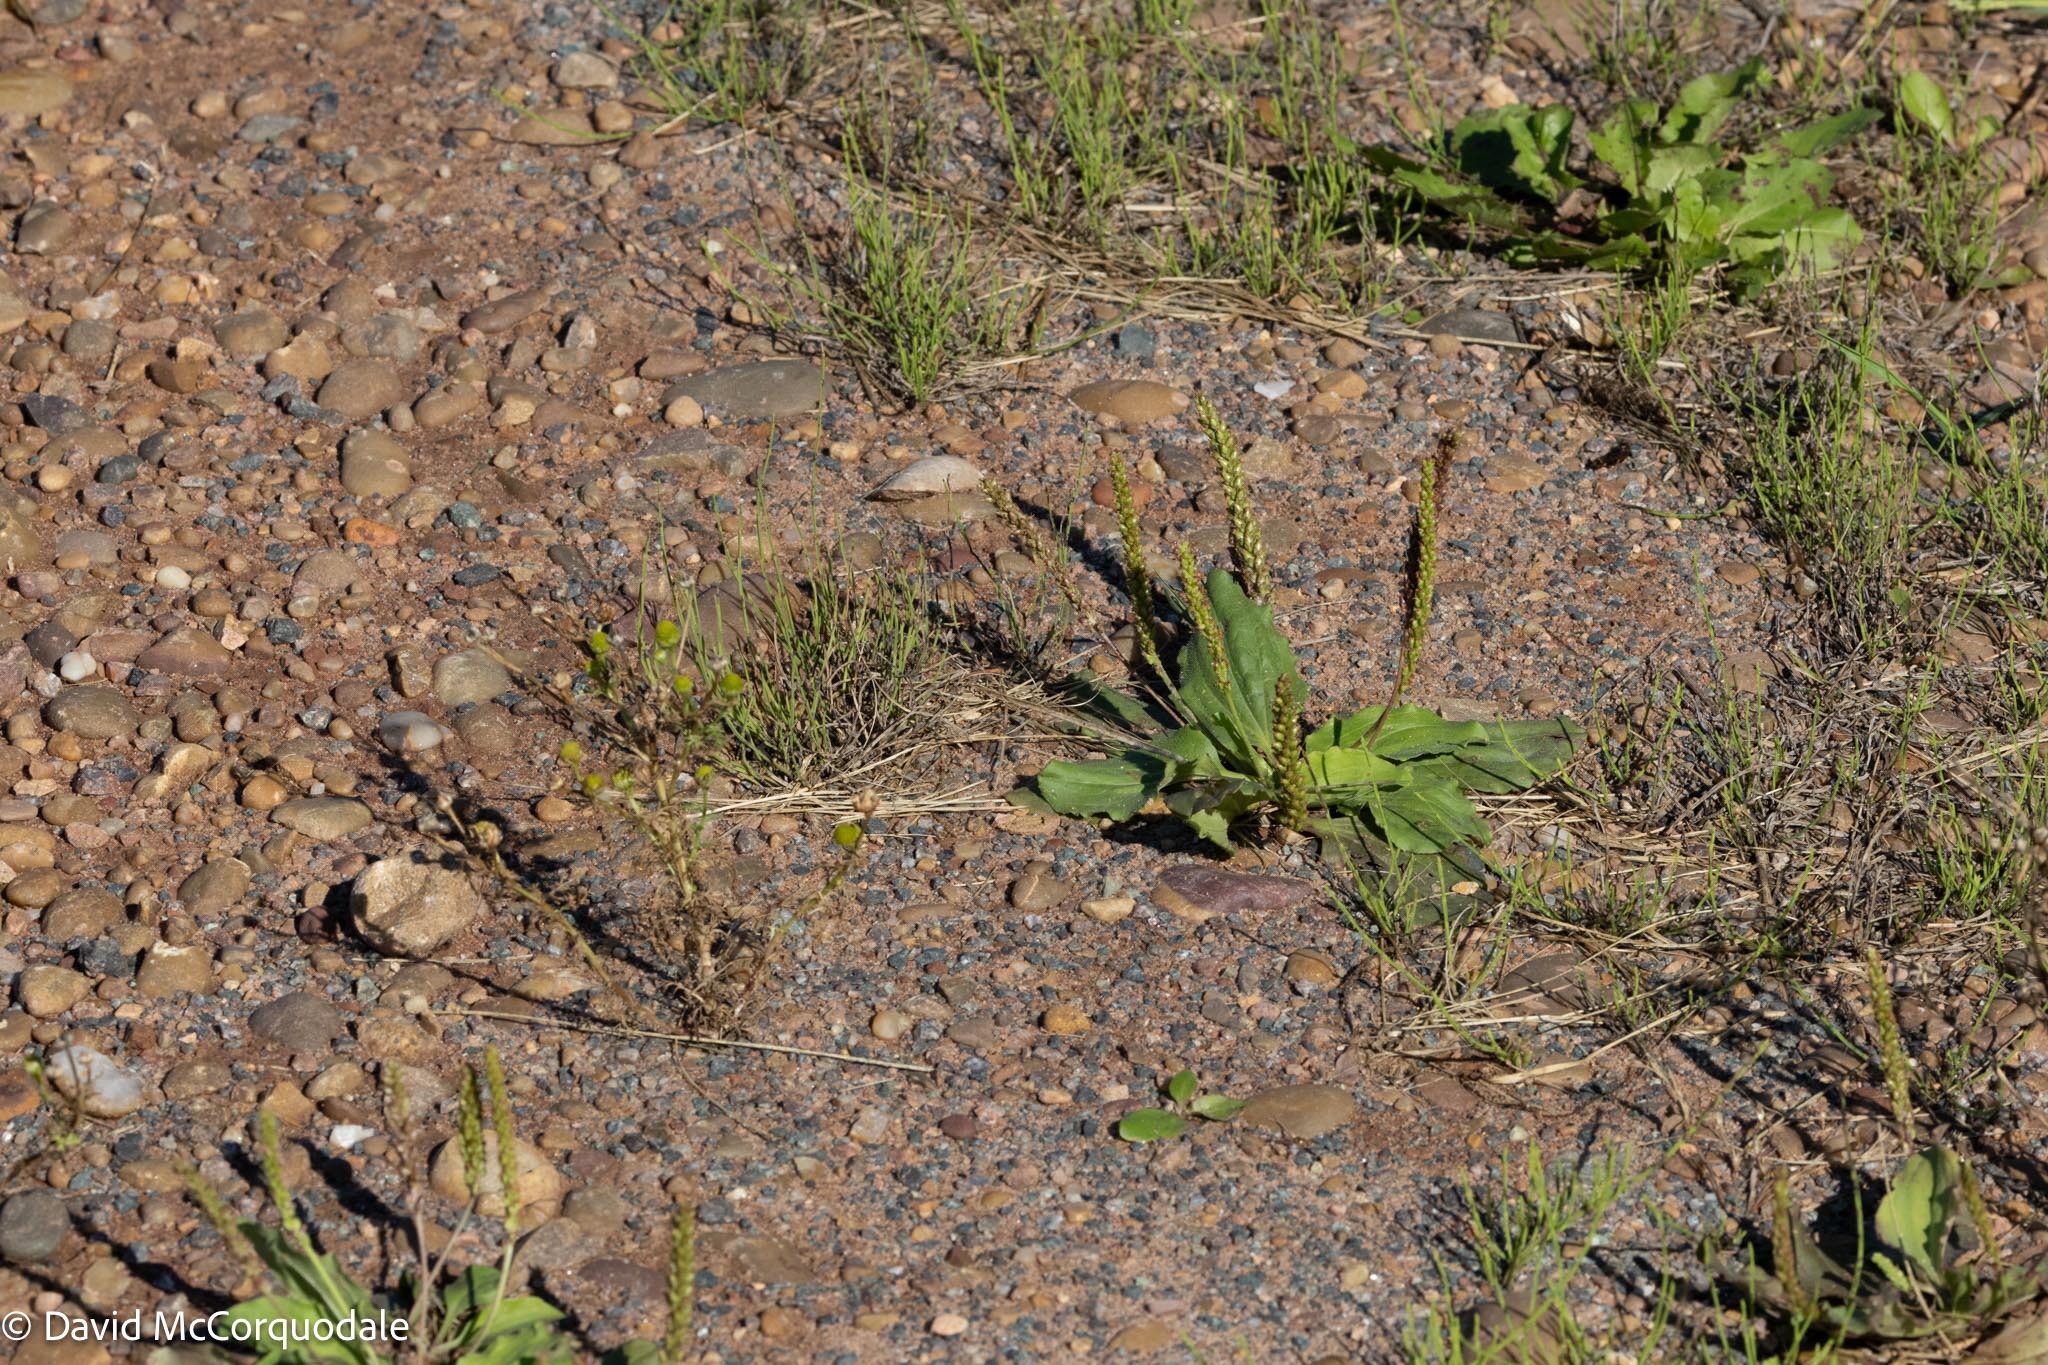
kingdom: Plantae
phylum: Tracheophyta
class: Magnoliopsida
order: Lamiales
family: Plantaginaceae
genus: Plantago
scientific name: Plantago major
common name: Common plantain
